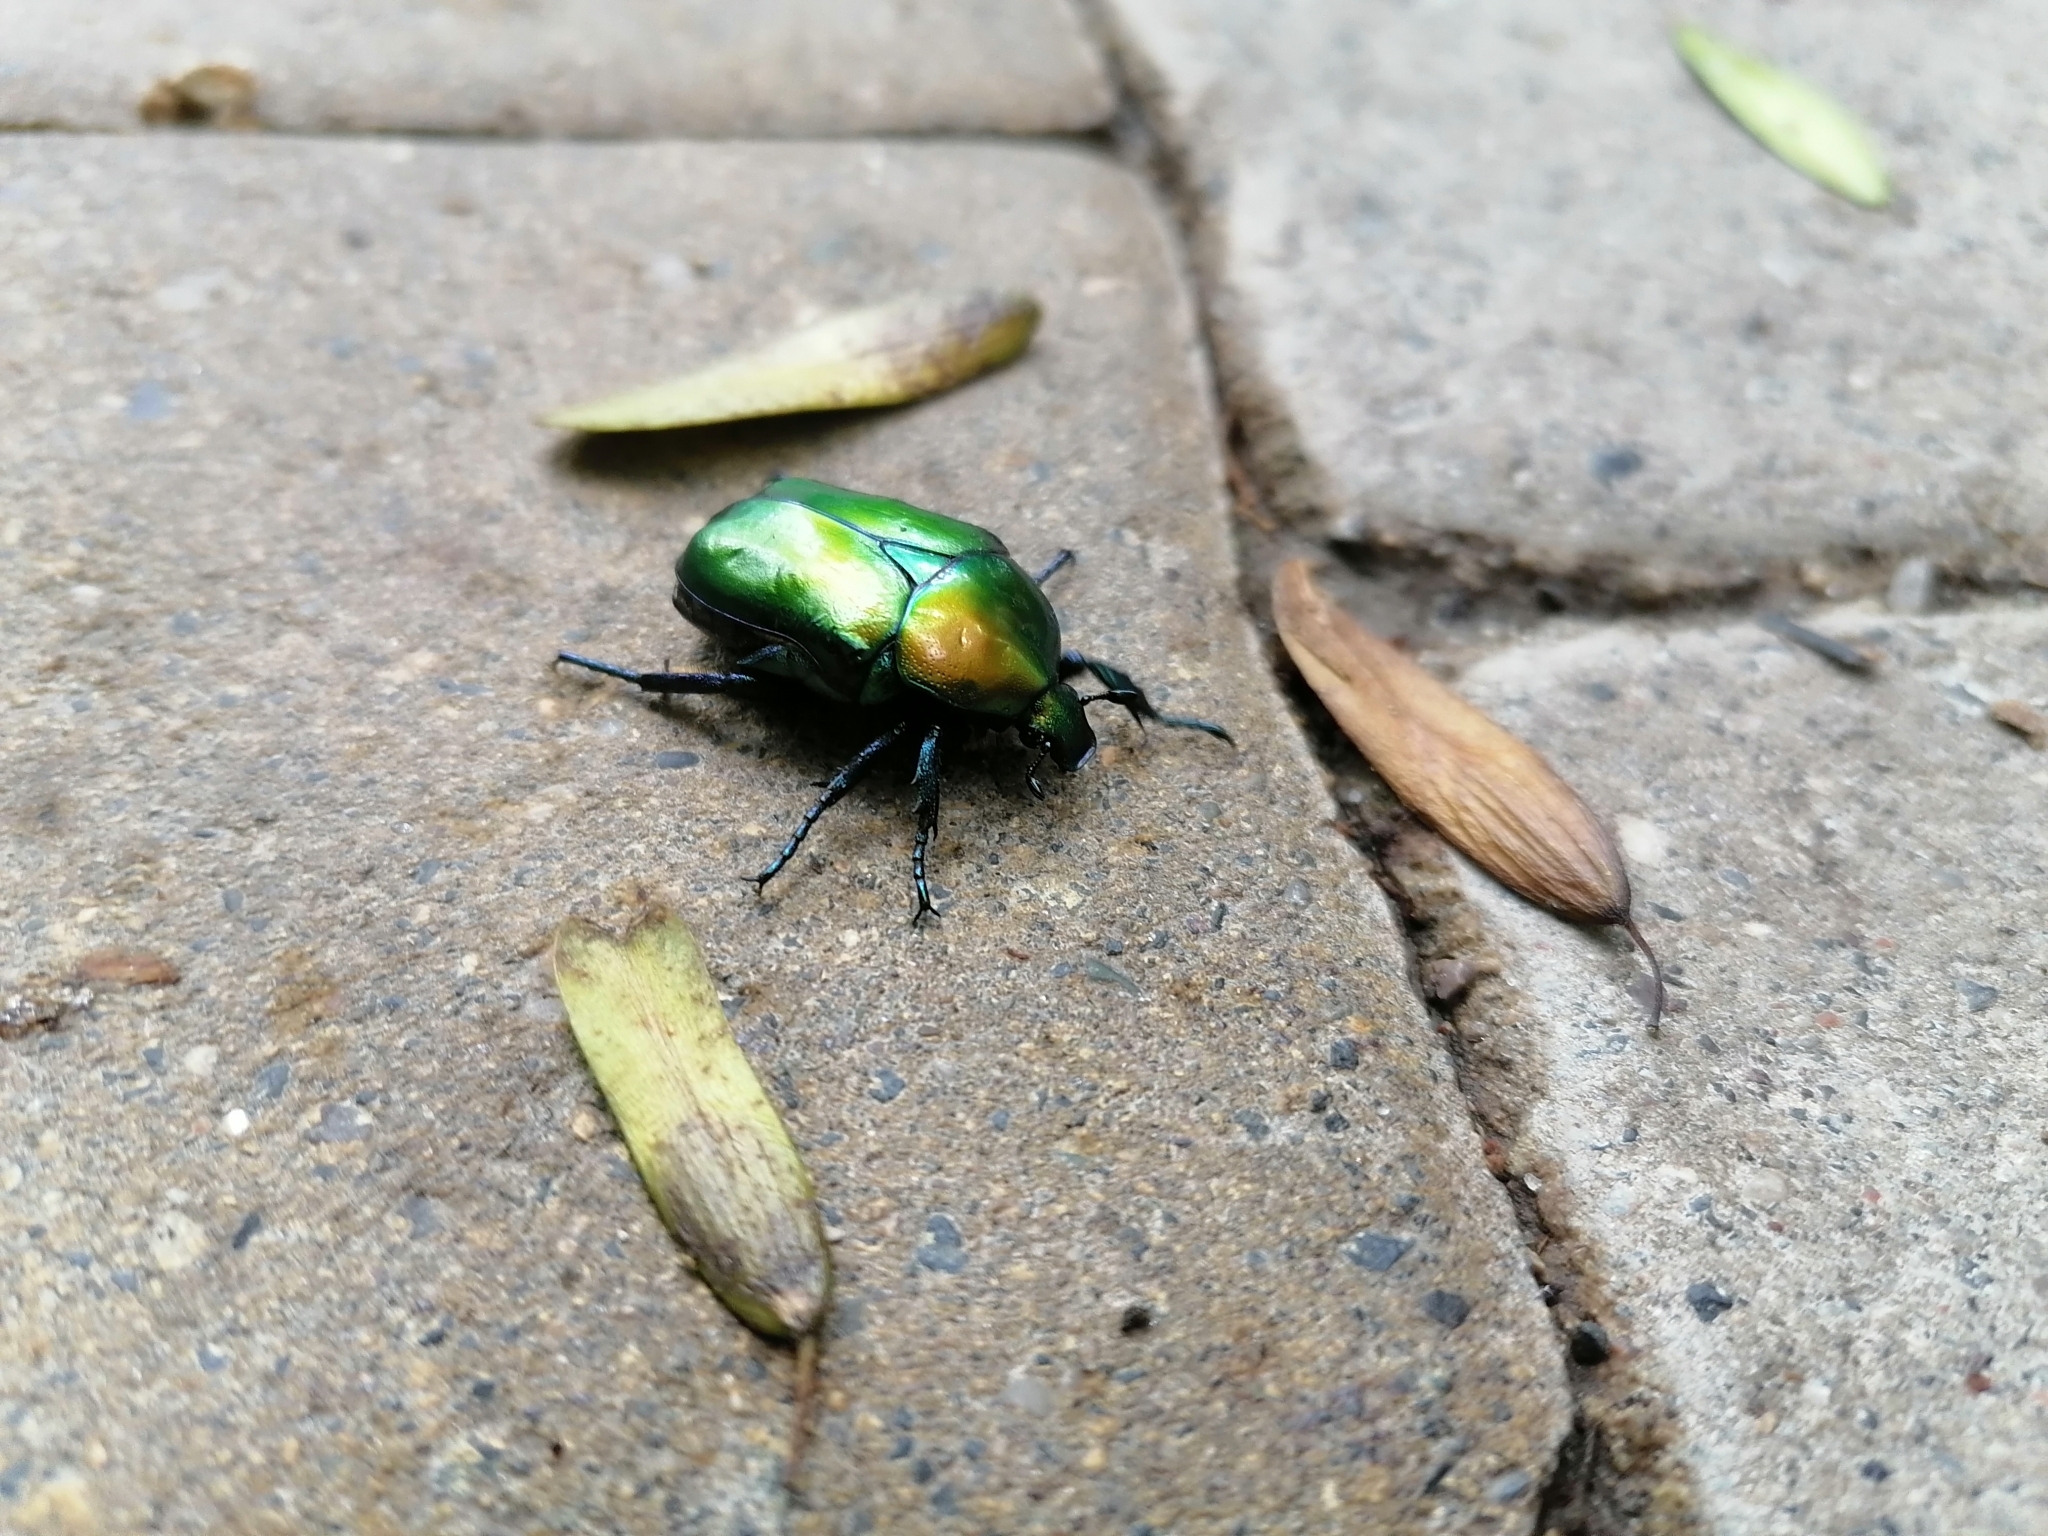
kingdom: Animalia
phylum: Arthropoda
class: Insecta
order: Coleoptera
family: Scarabaeidae
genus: Protaetia
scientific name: Protaetia speciosa
